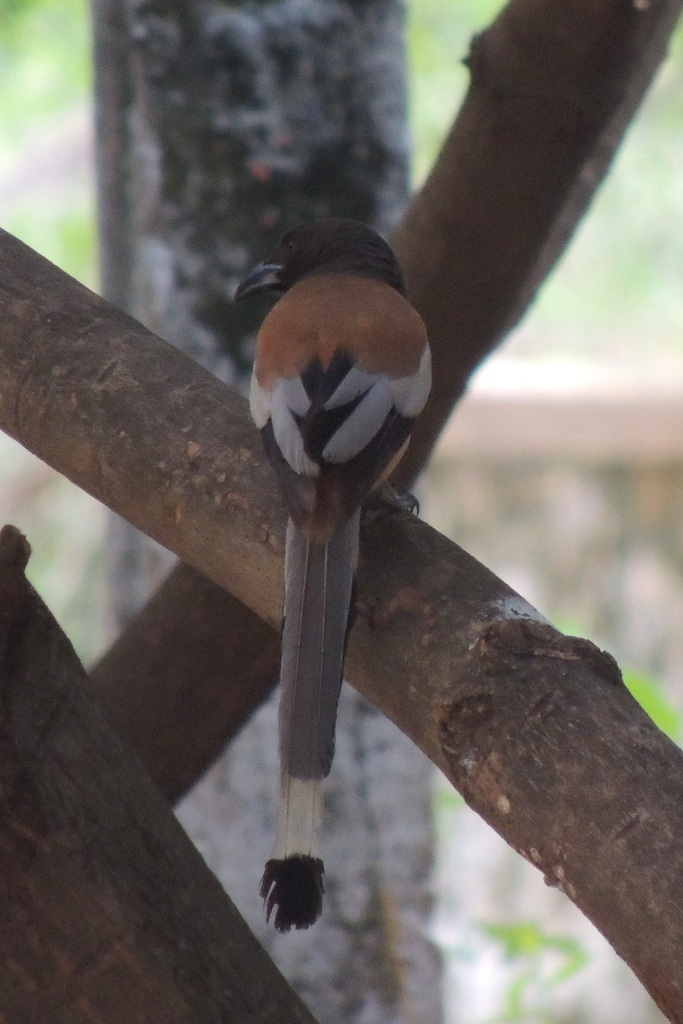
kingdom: Animalia
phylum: Chordata
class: Aves
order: Passeriformes
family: Corvidae
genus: Dendrocitta
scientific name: Dendrocitta vagabunda
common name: Rufous treepie
